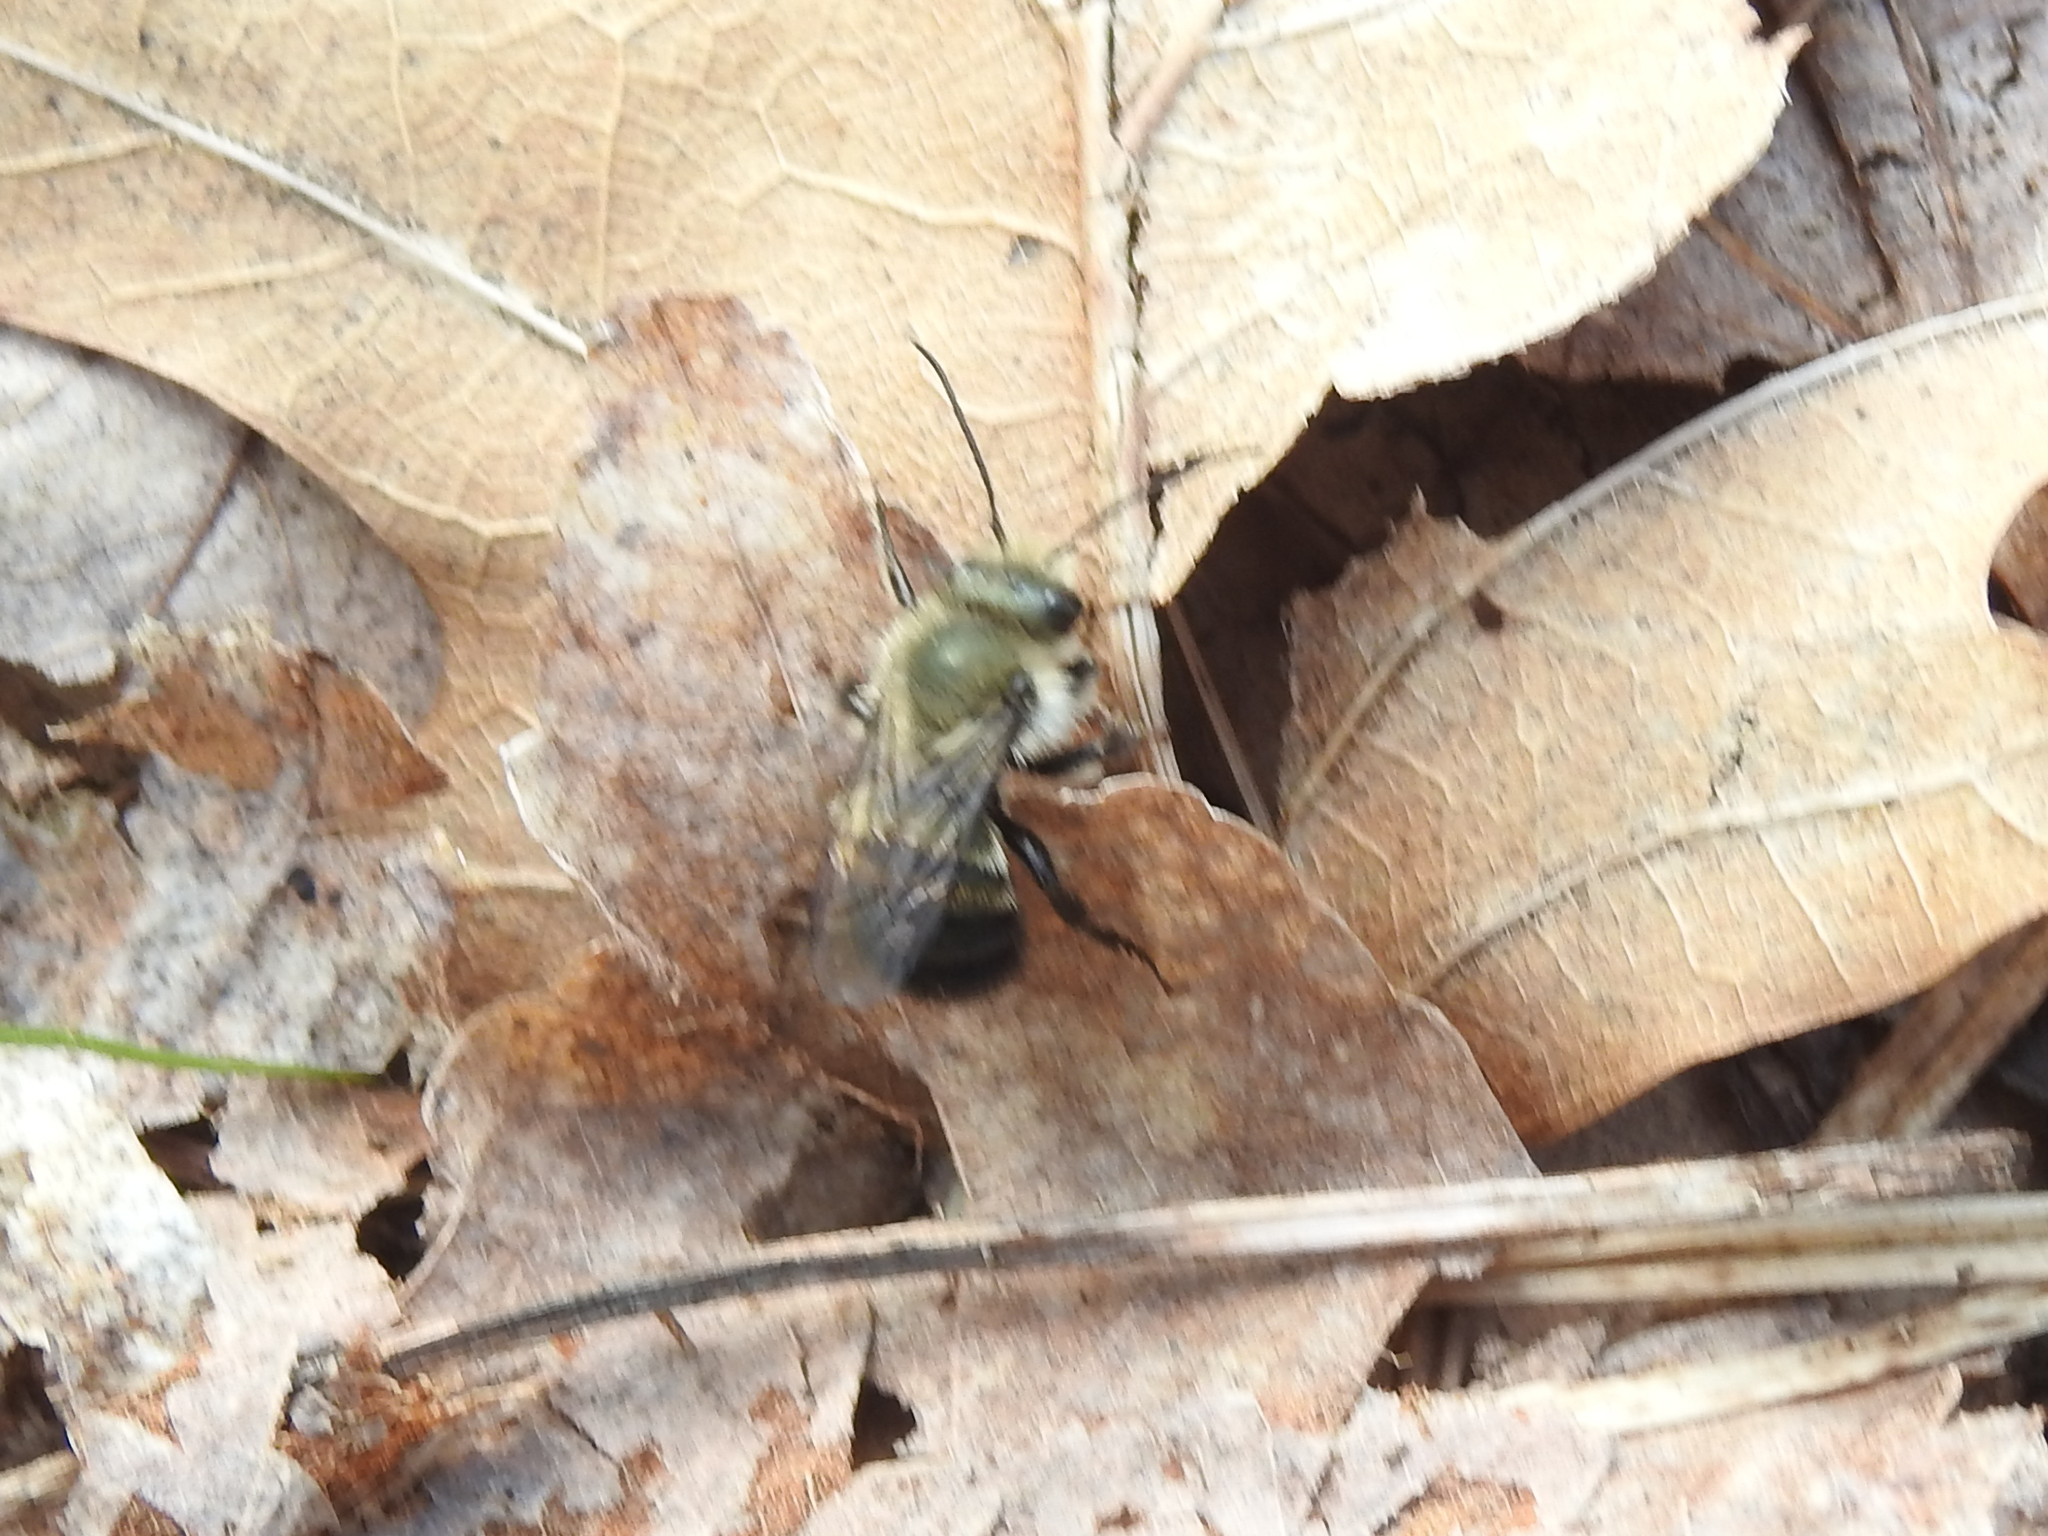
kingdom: Animalia
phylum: Arthropoda
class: Insecta
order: Hymenoptera
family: Megachilidae
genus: Osmia
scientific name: Osmia bucephala
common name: Bufflehead mason bee
